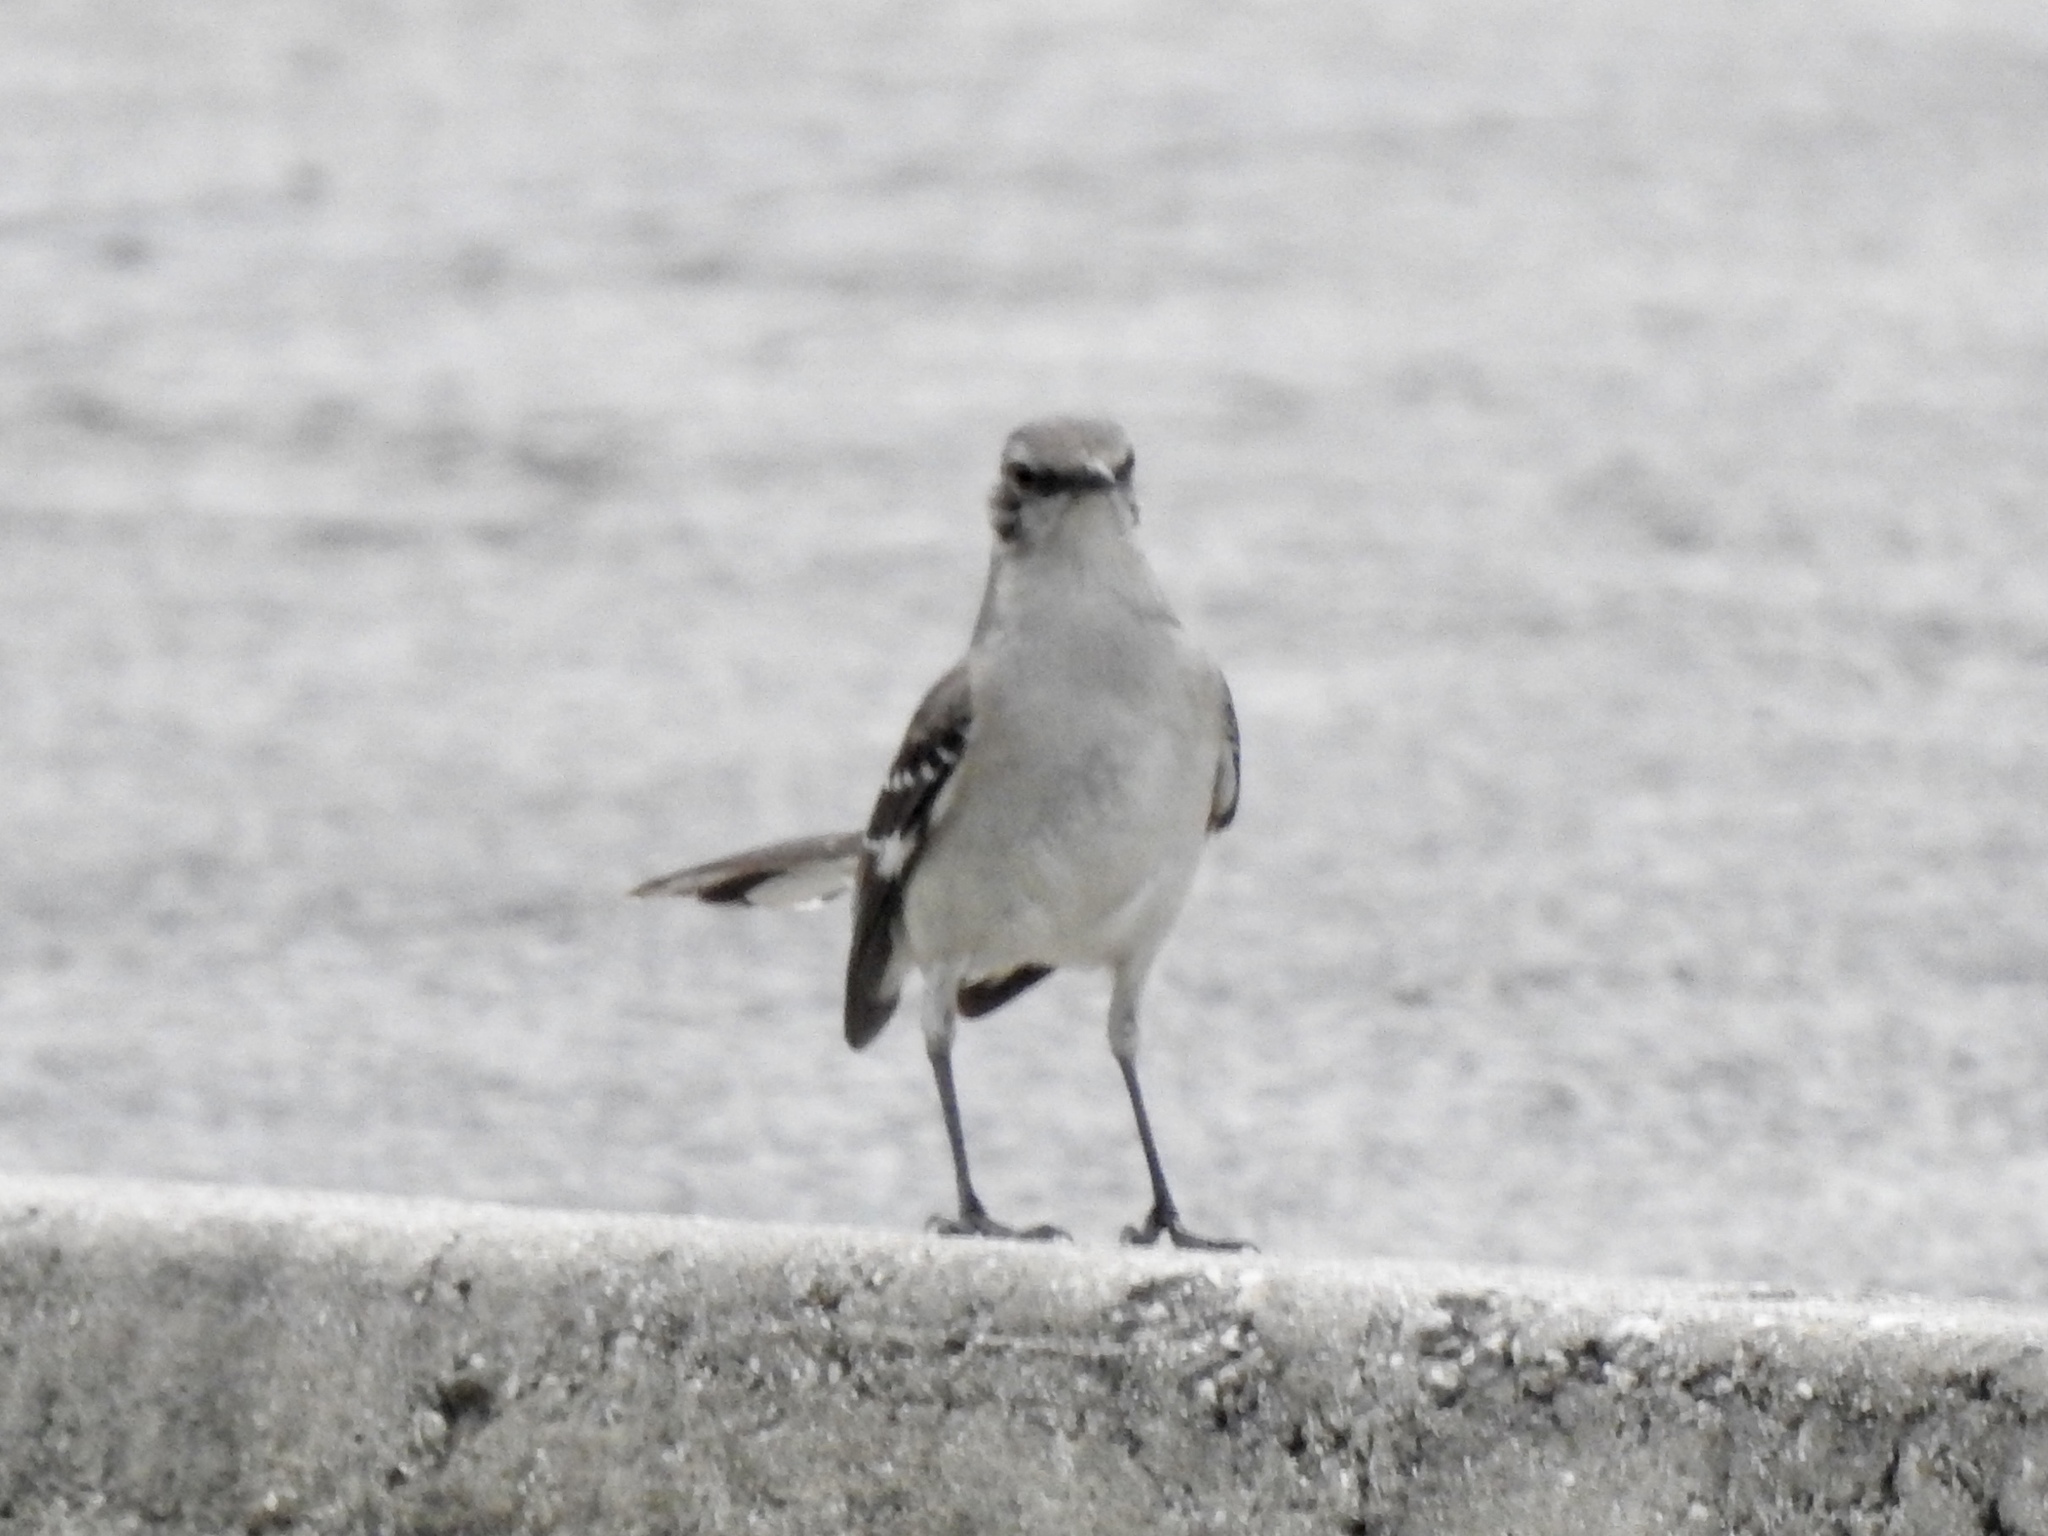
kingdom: Animalia
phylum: Chordata
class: Aves
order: Passeriformes
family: Mimidae
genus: Mimus
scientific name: Mimus polyglottos
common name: Northern mockingbird
